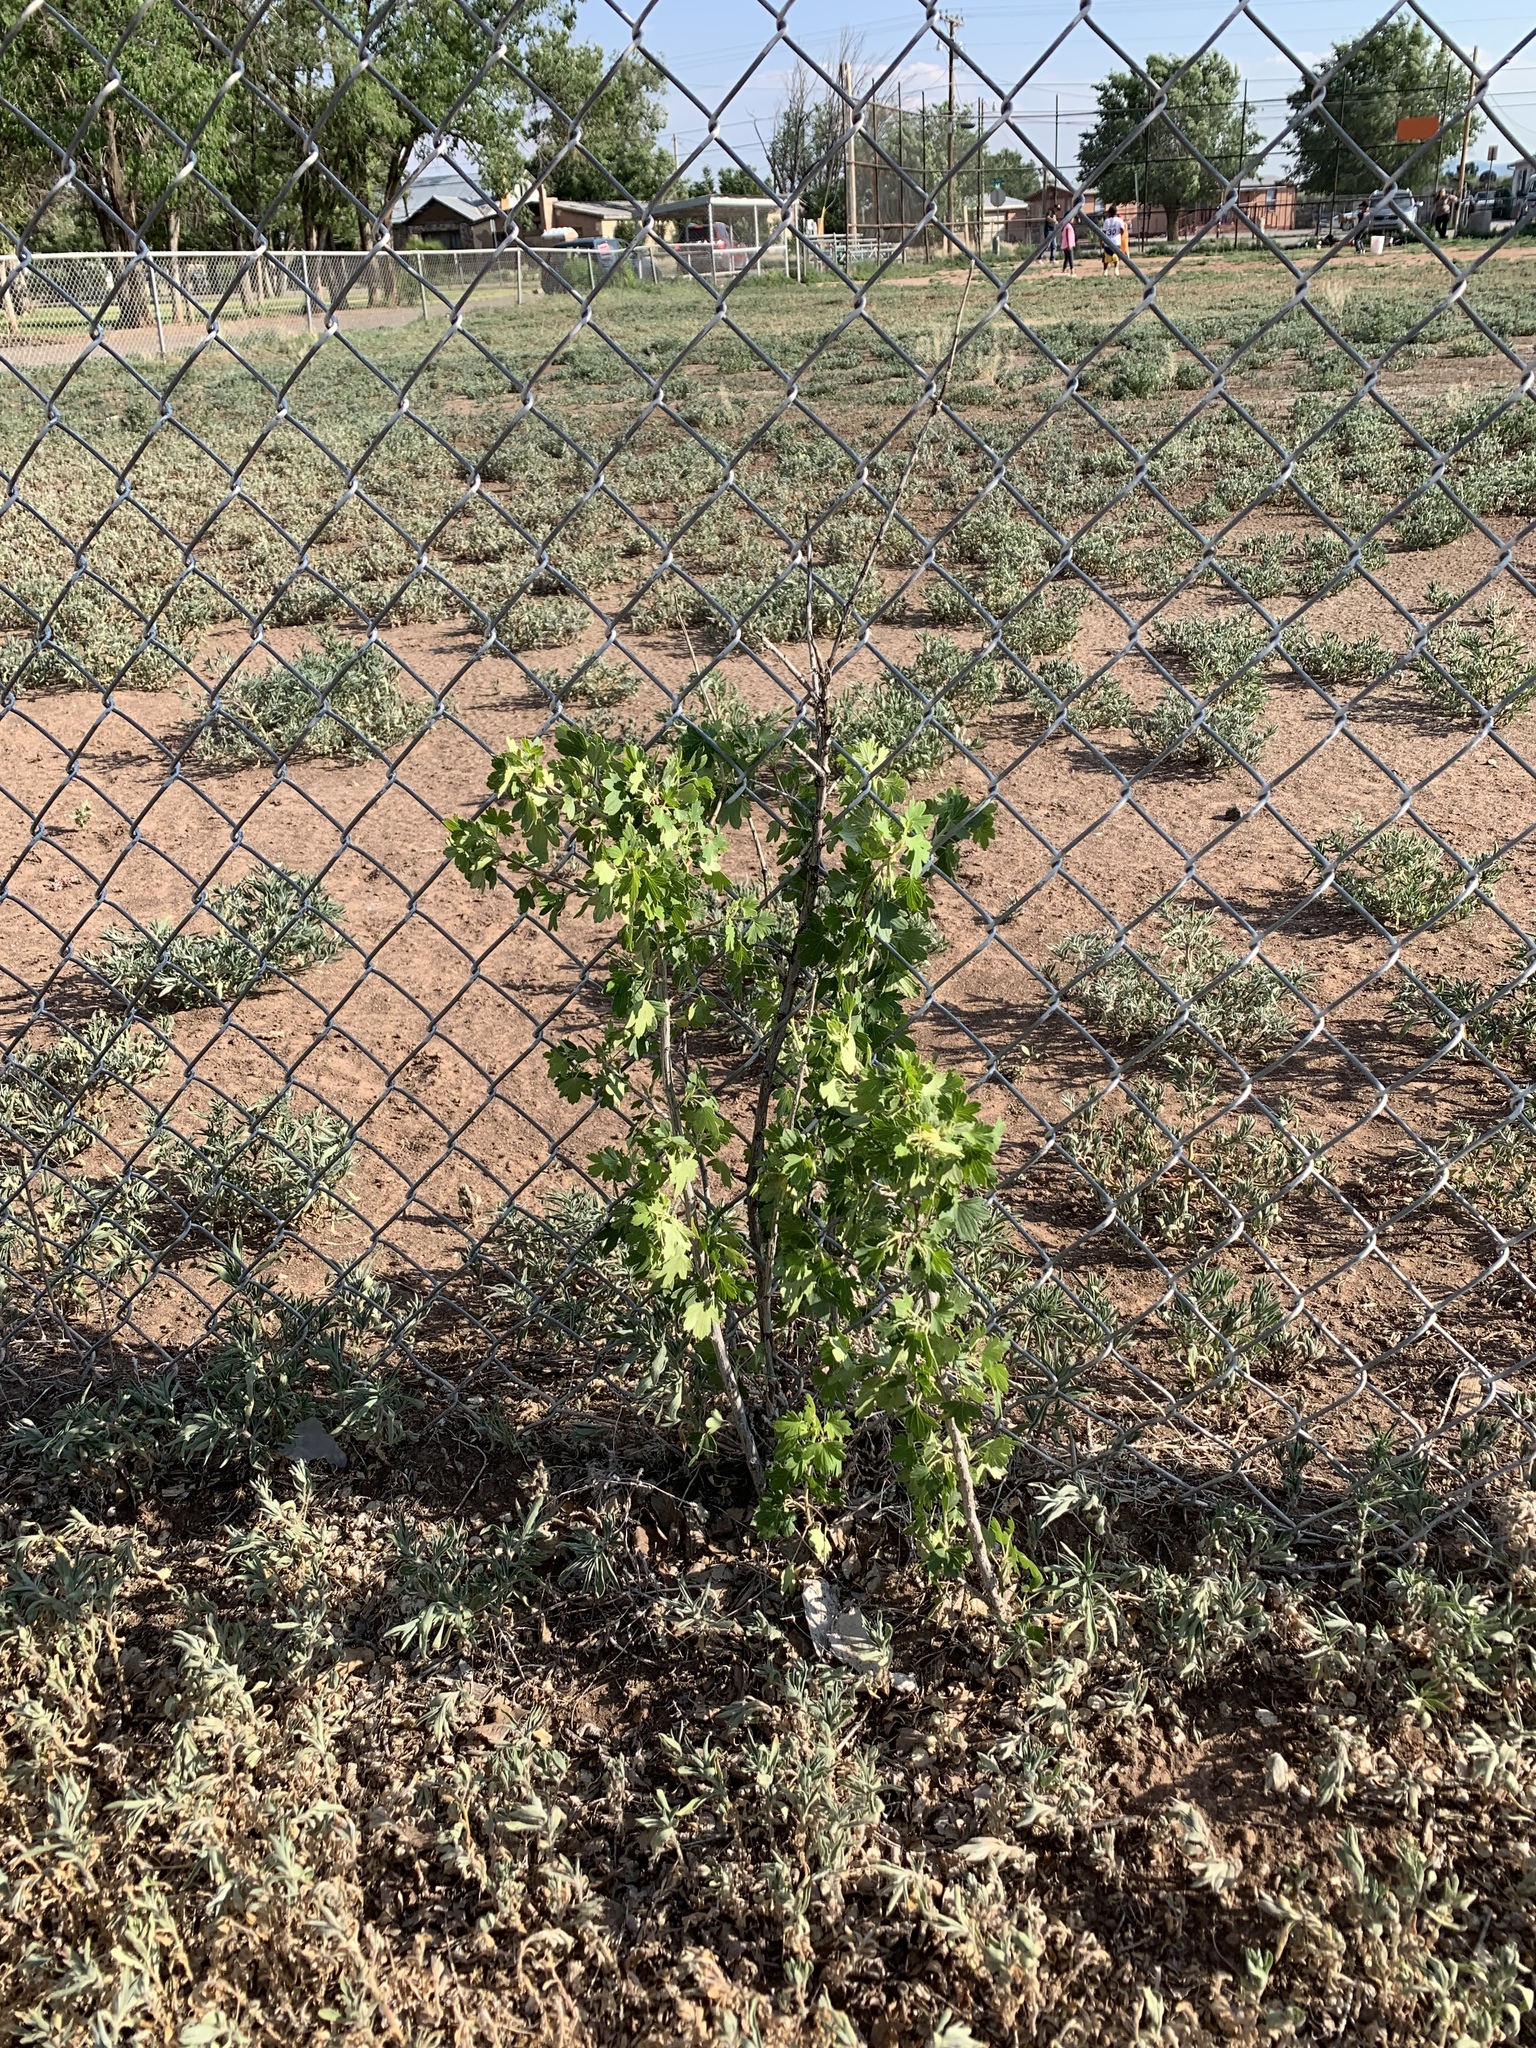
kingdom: Plantae
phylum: Tracheophyta
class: Magnoliopsida
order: Saxifragales
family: Grossulariaceae
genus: Ribes
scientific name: Ribes aureum
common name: Golden currant
